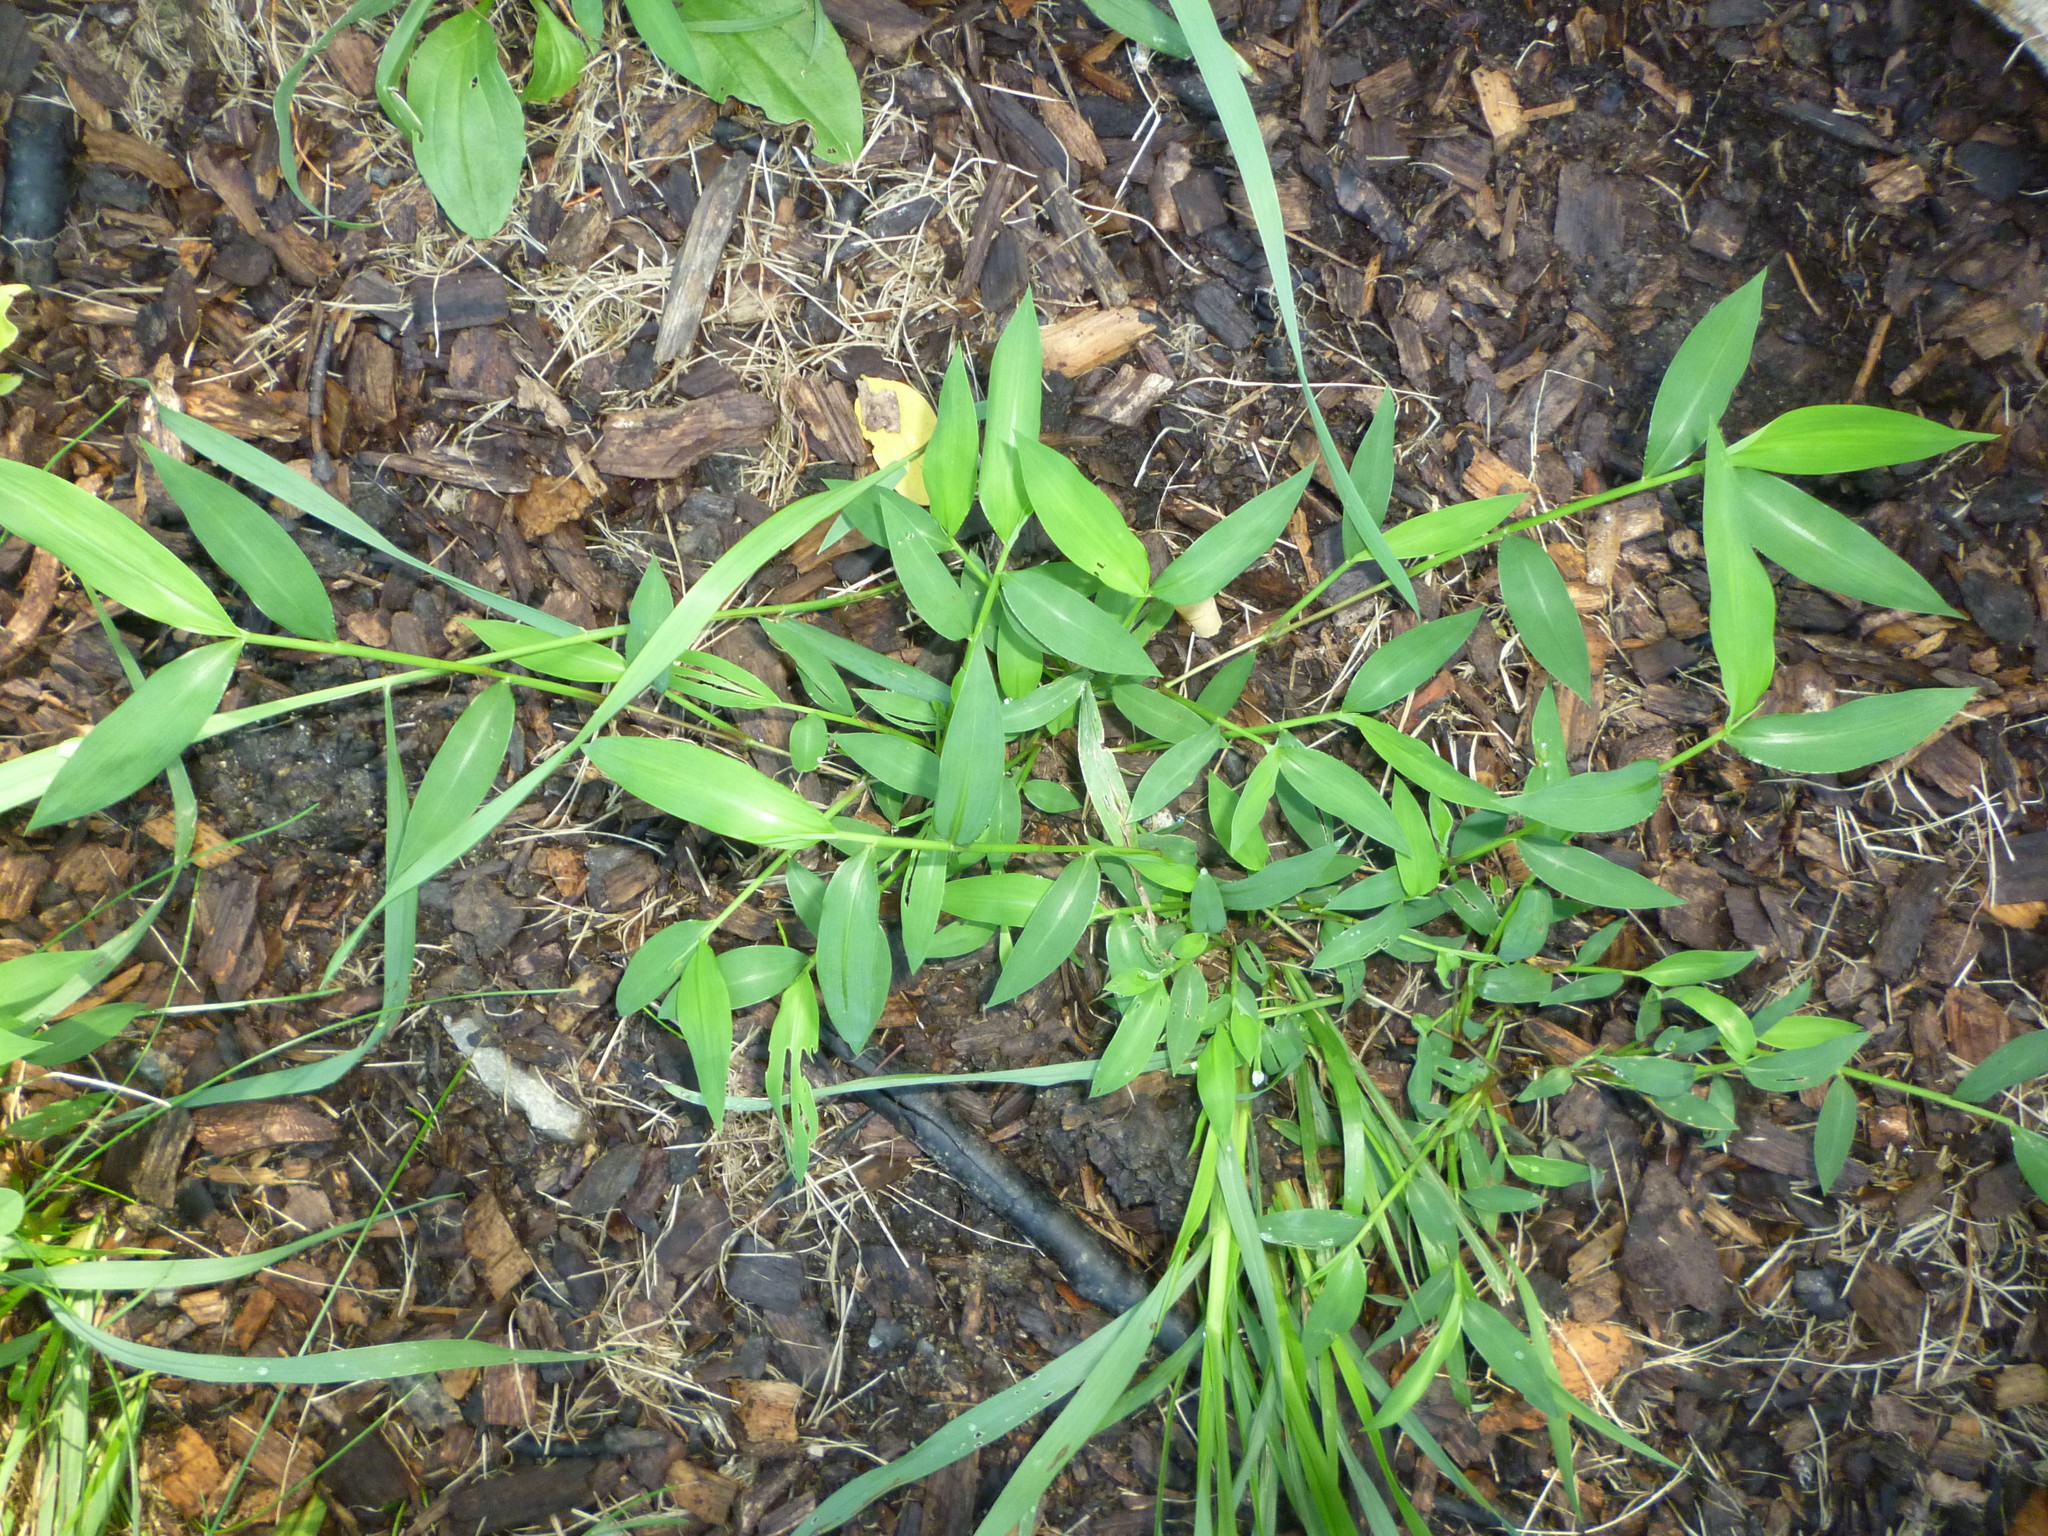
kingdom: Plantae
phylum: Tracheophyta
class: Liliopsida
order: Poales
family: Poaceae
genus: Microstegium
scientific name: Microstegium vimineum
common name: Japanese stiltgrass
